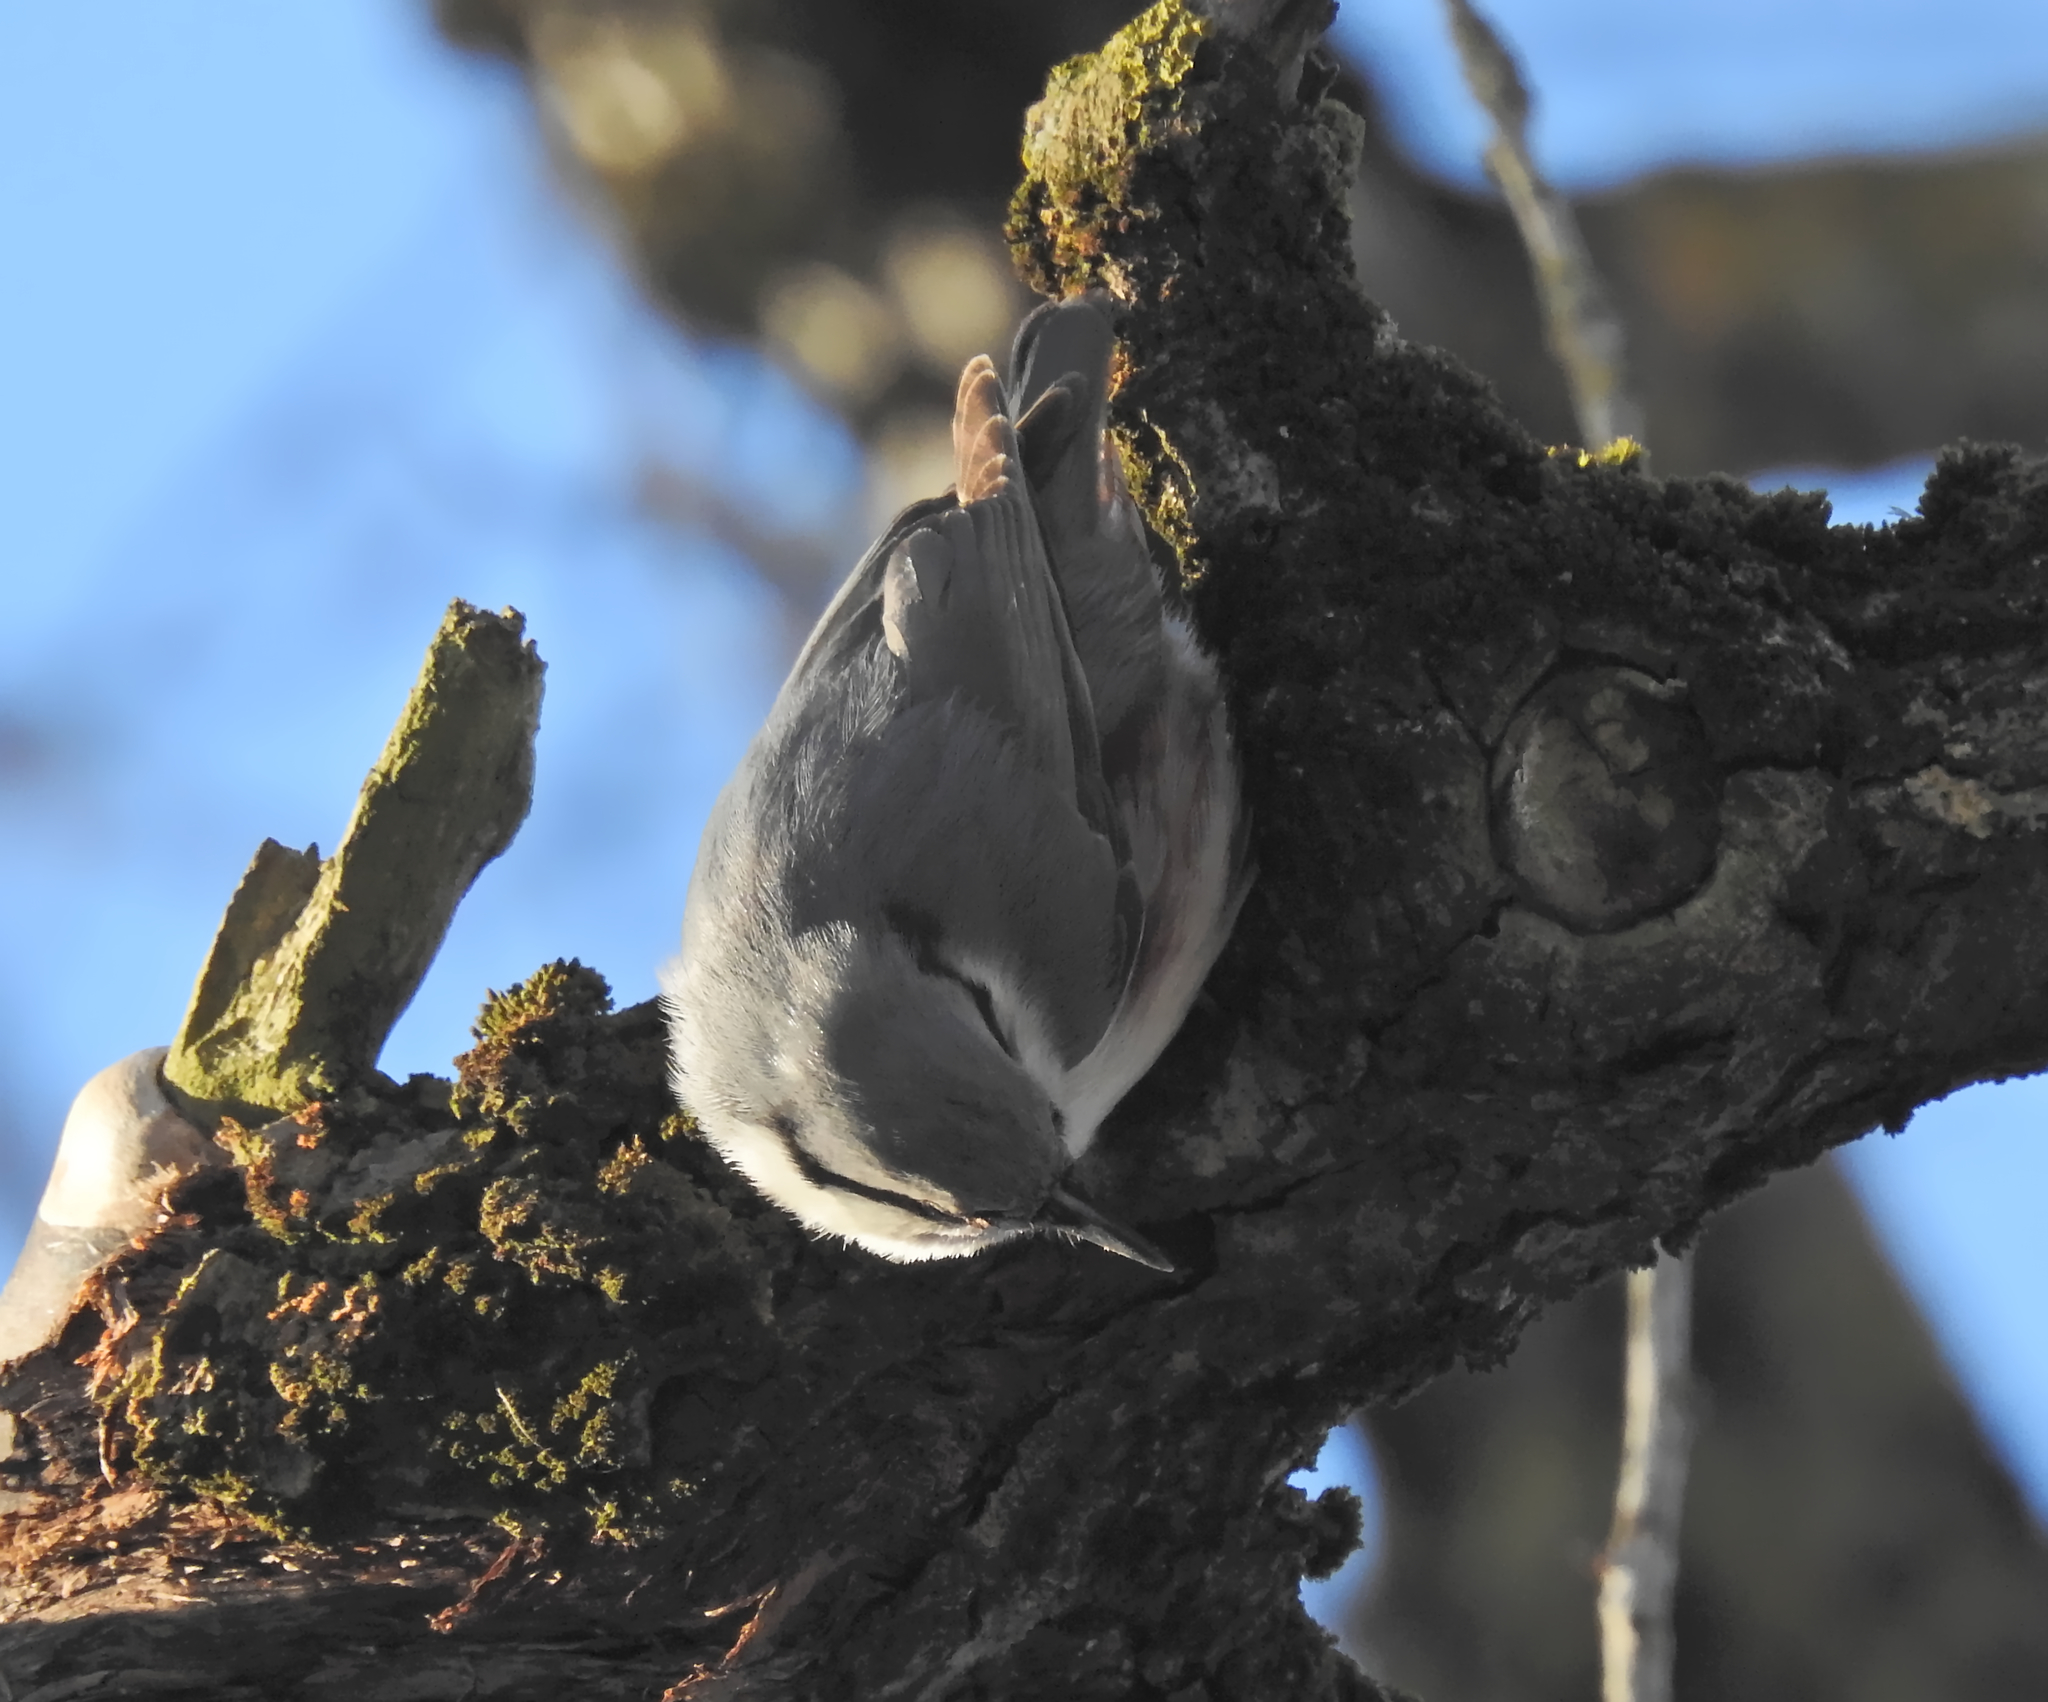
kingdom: Animalia
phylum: Chordata
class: Aves
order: Passeriformes
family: Sittidae
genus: Sitta
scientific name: Sitta europaea
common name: Eurasian nuthatch
